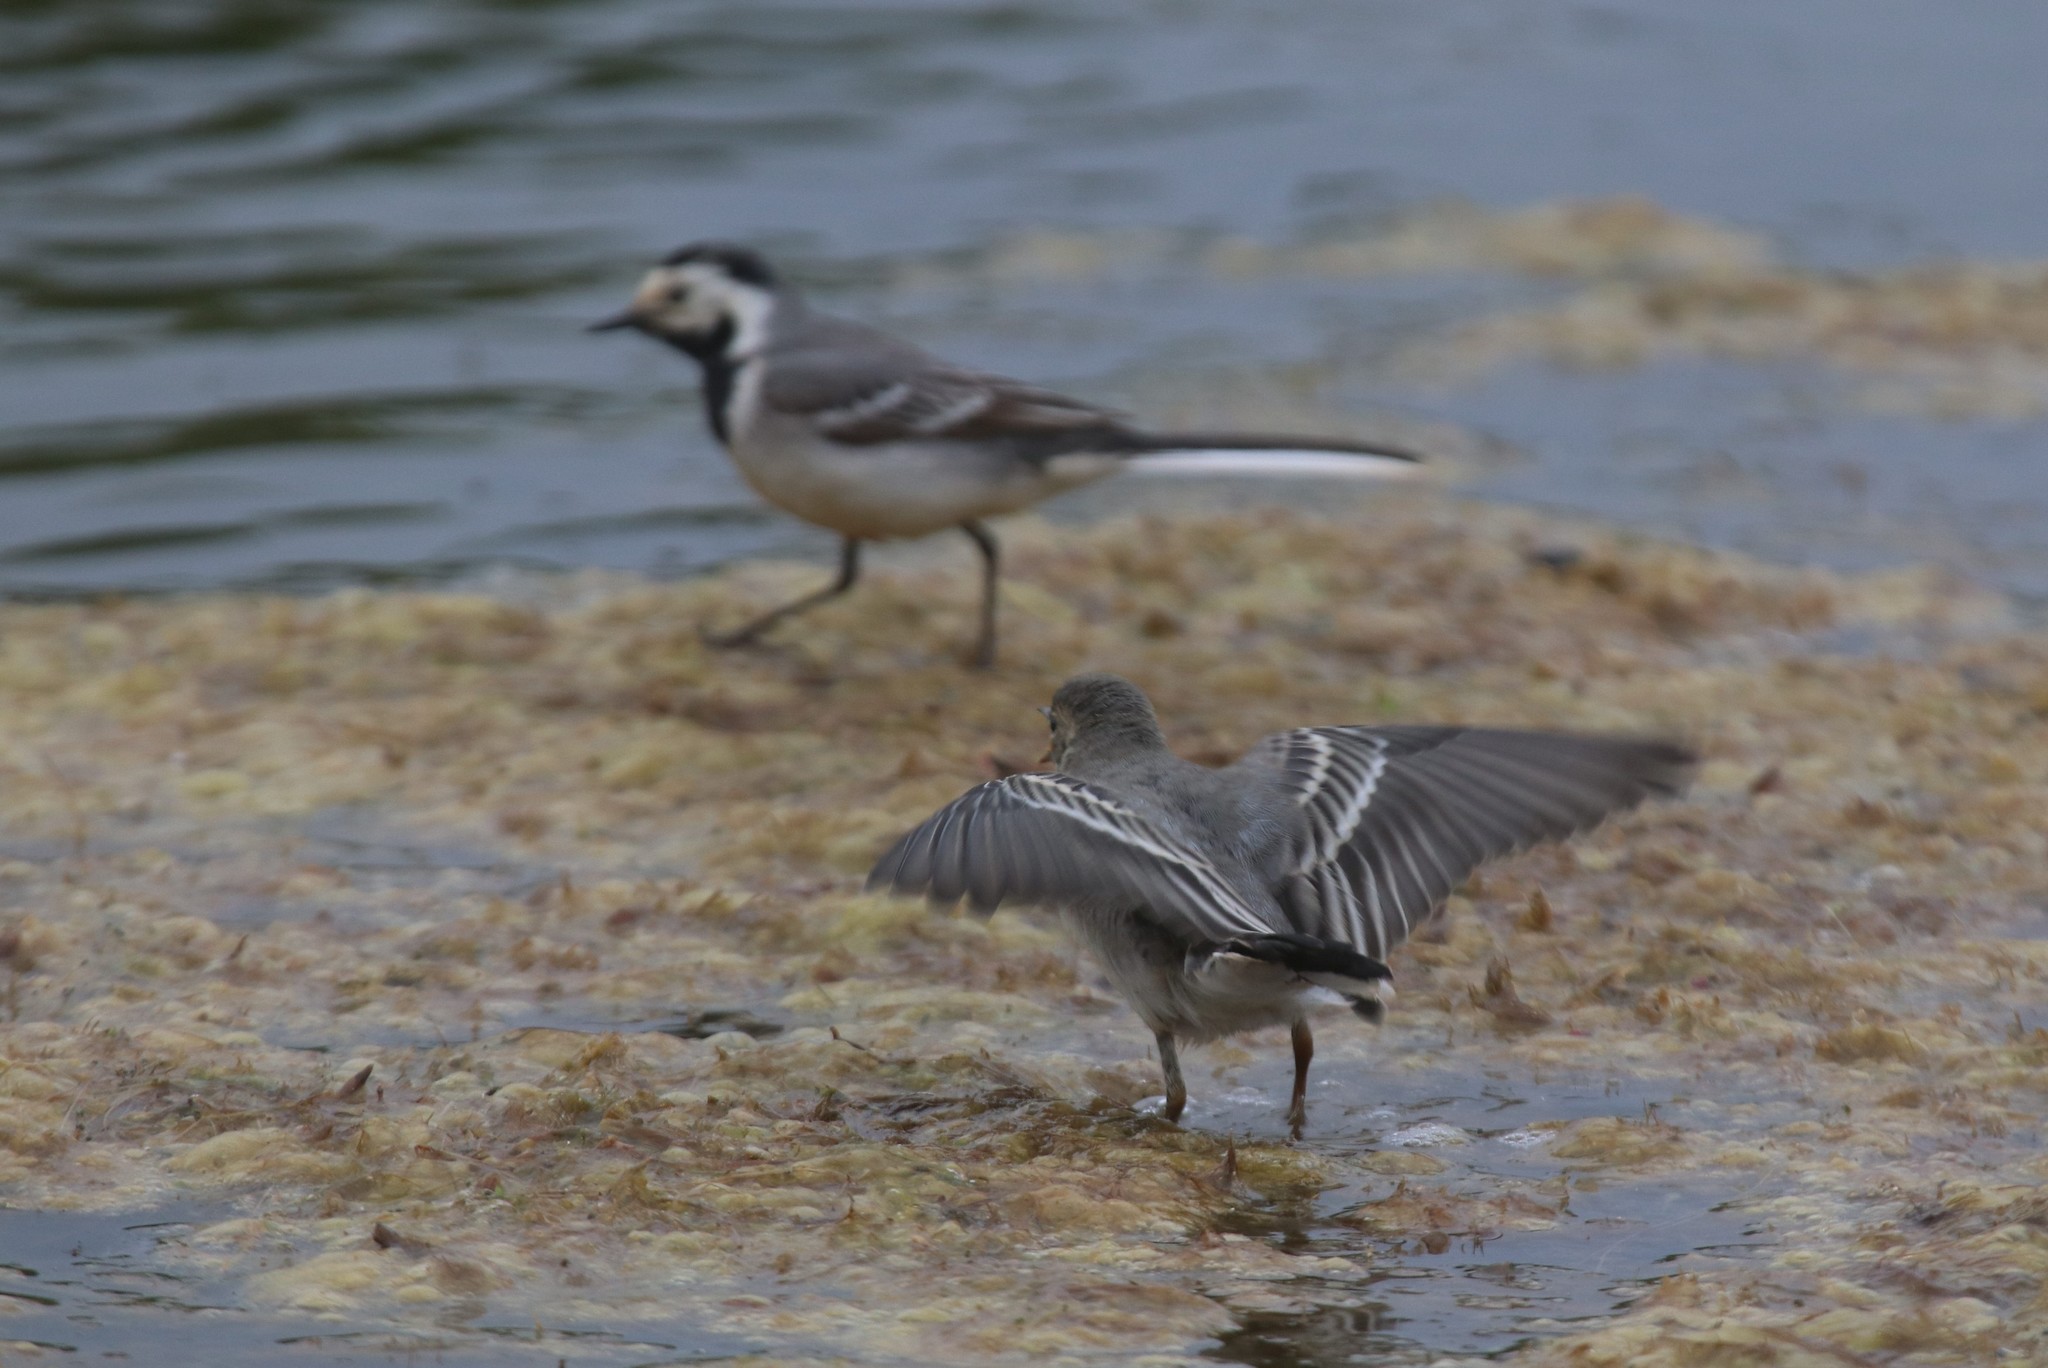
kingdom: Animalia
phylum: Chordata
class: Aves
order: Passeriformes
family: Motacillidae
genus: Motacilla
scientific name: Motacilla alba
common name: White wagtail
